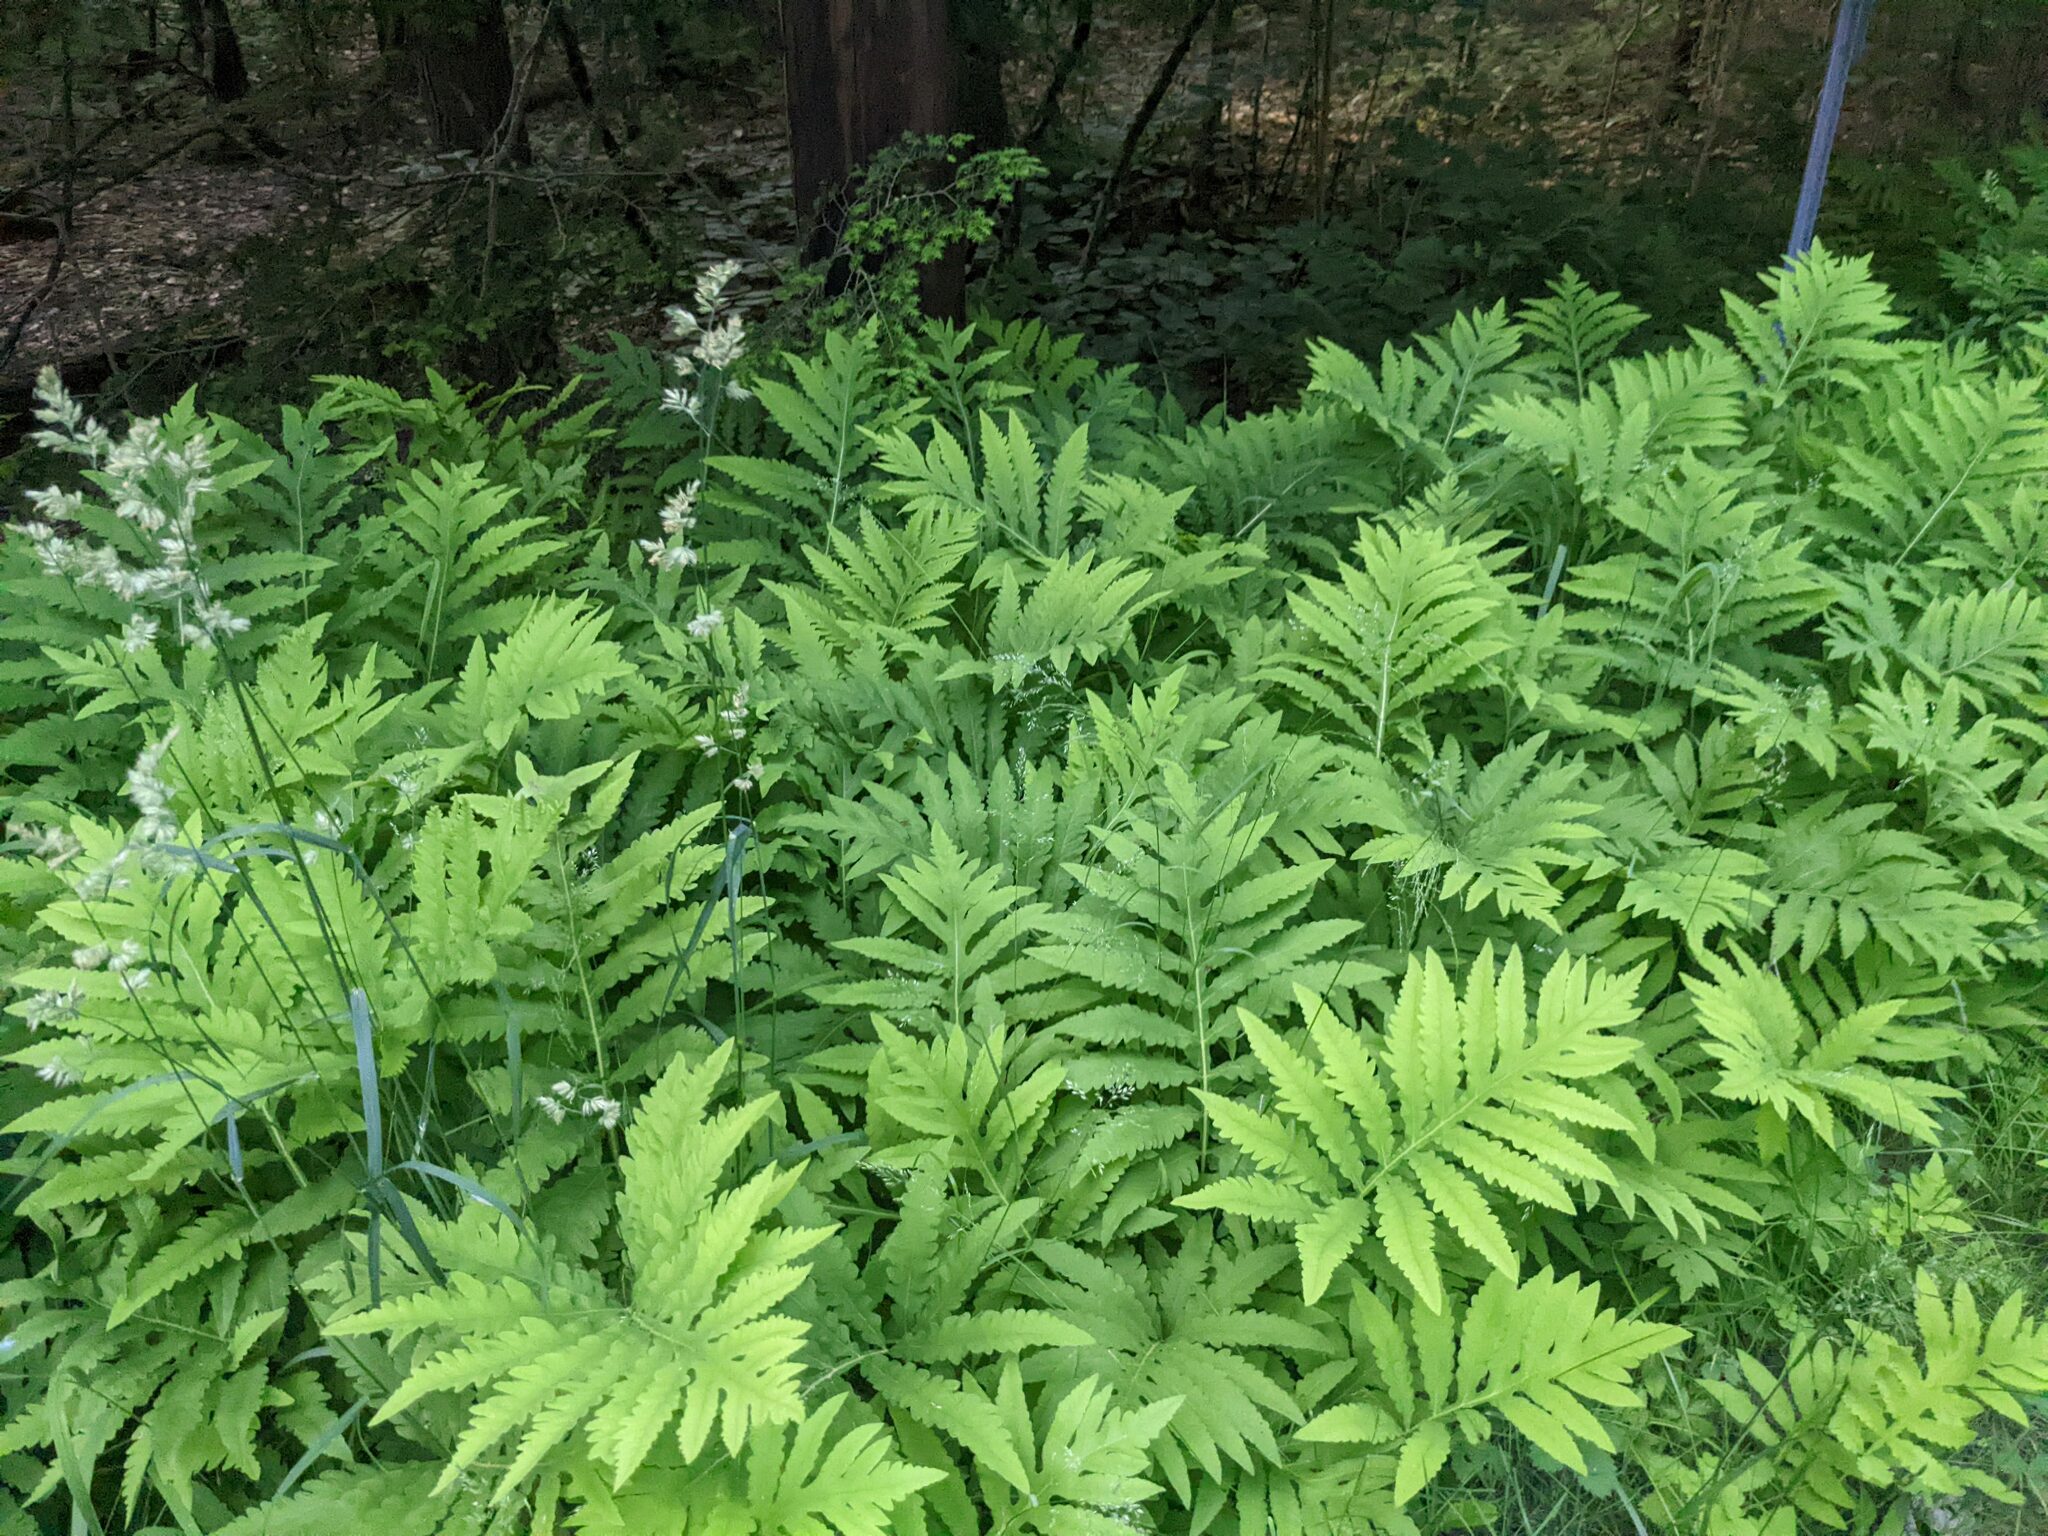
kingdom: Plantae
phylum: Tracheophyta
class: Polypodiopsida
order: Polypodiales
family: Onocleaceae
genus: Onoclea
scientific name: Onoclea sensibilis
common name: Sensitive fern
